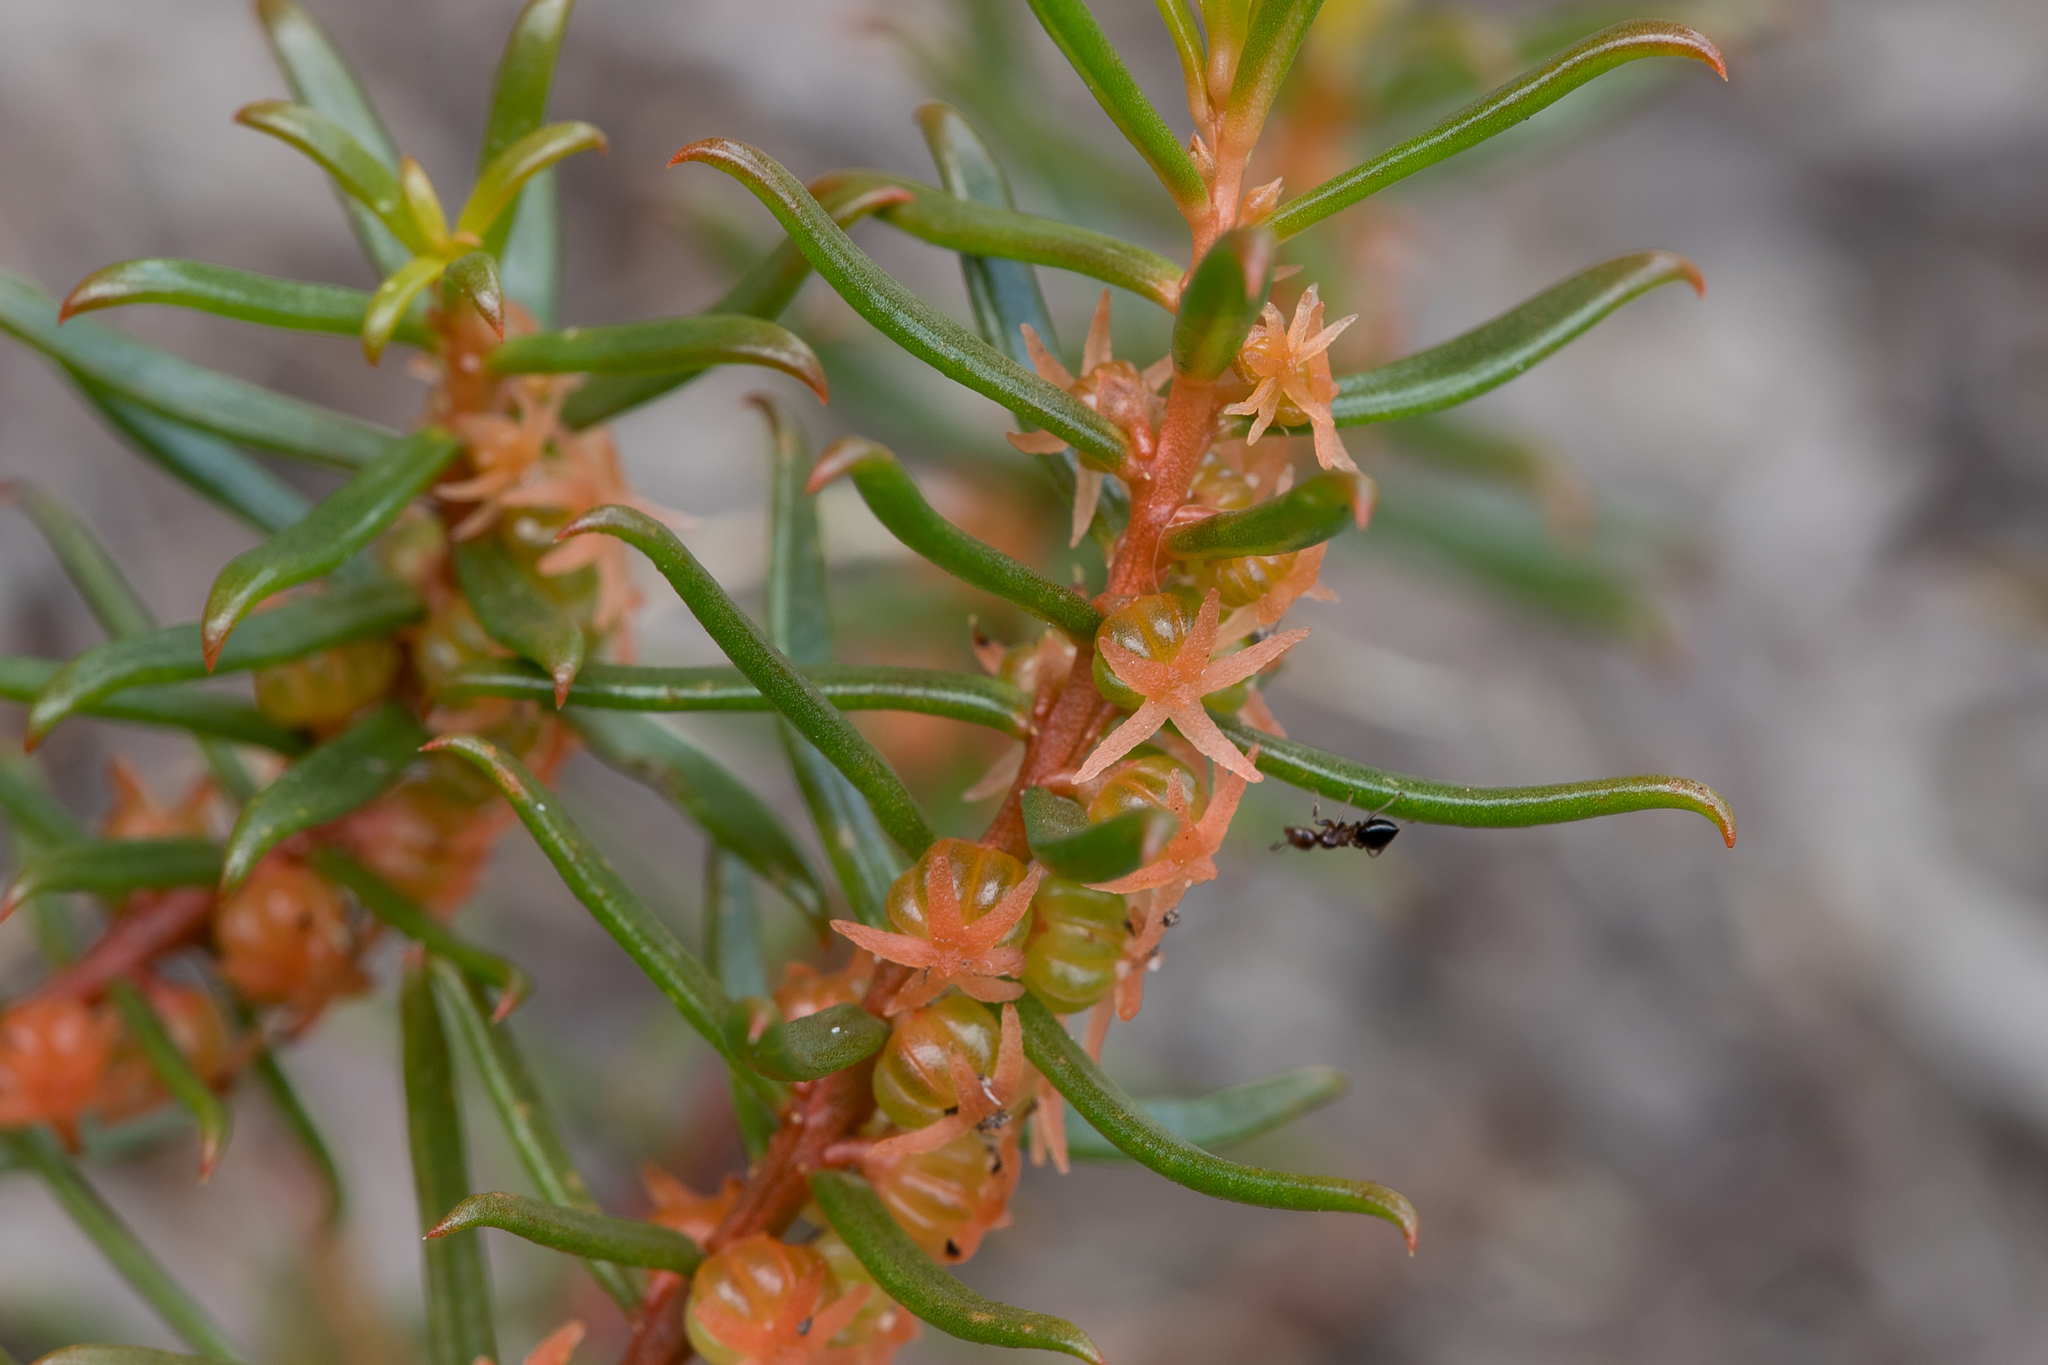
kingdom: Plantae
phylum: Tracheophyta
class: Magnoliopsida
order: Brassicales
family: Gyrostemonaceae
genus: Gyrostemon
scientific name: Gyrostemon australasicus
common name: Wheelfruit
